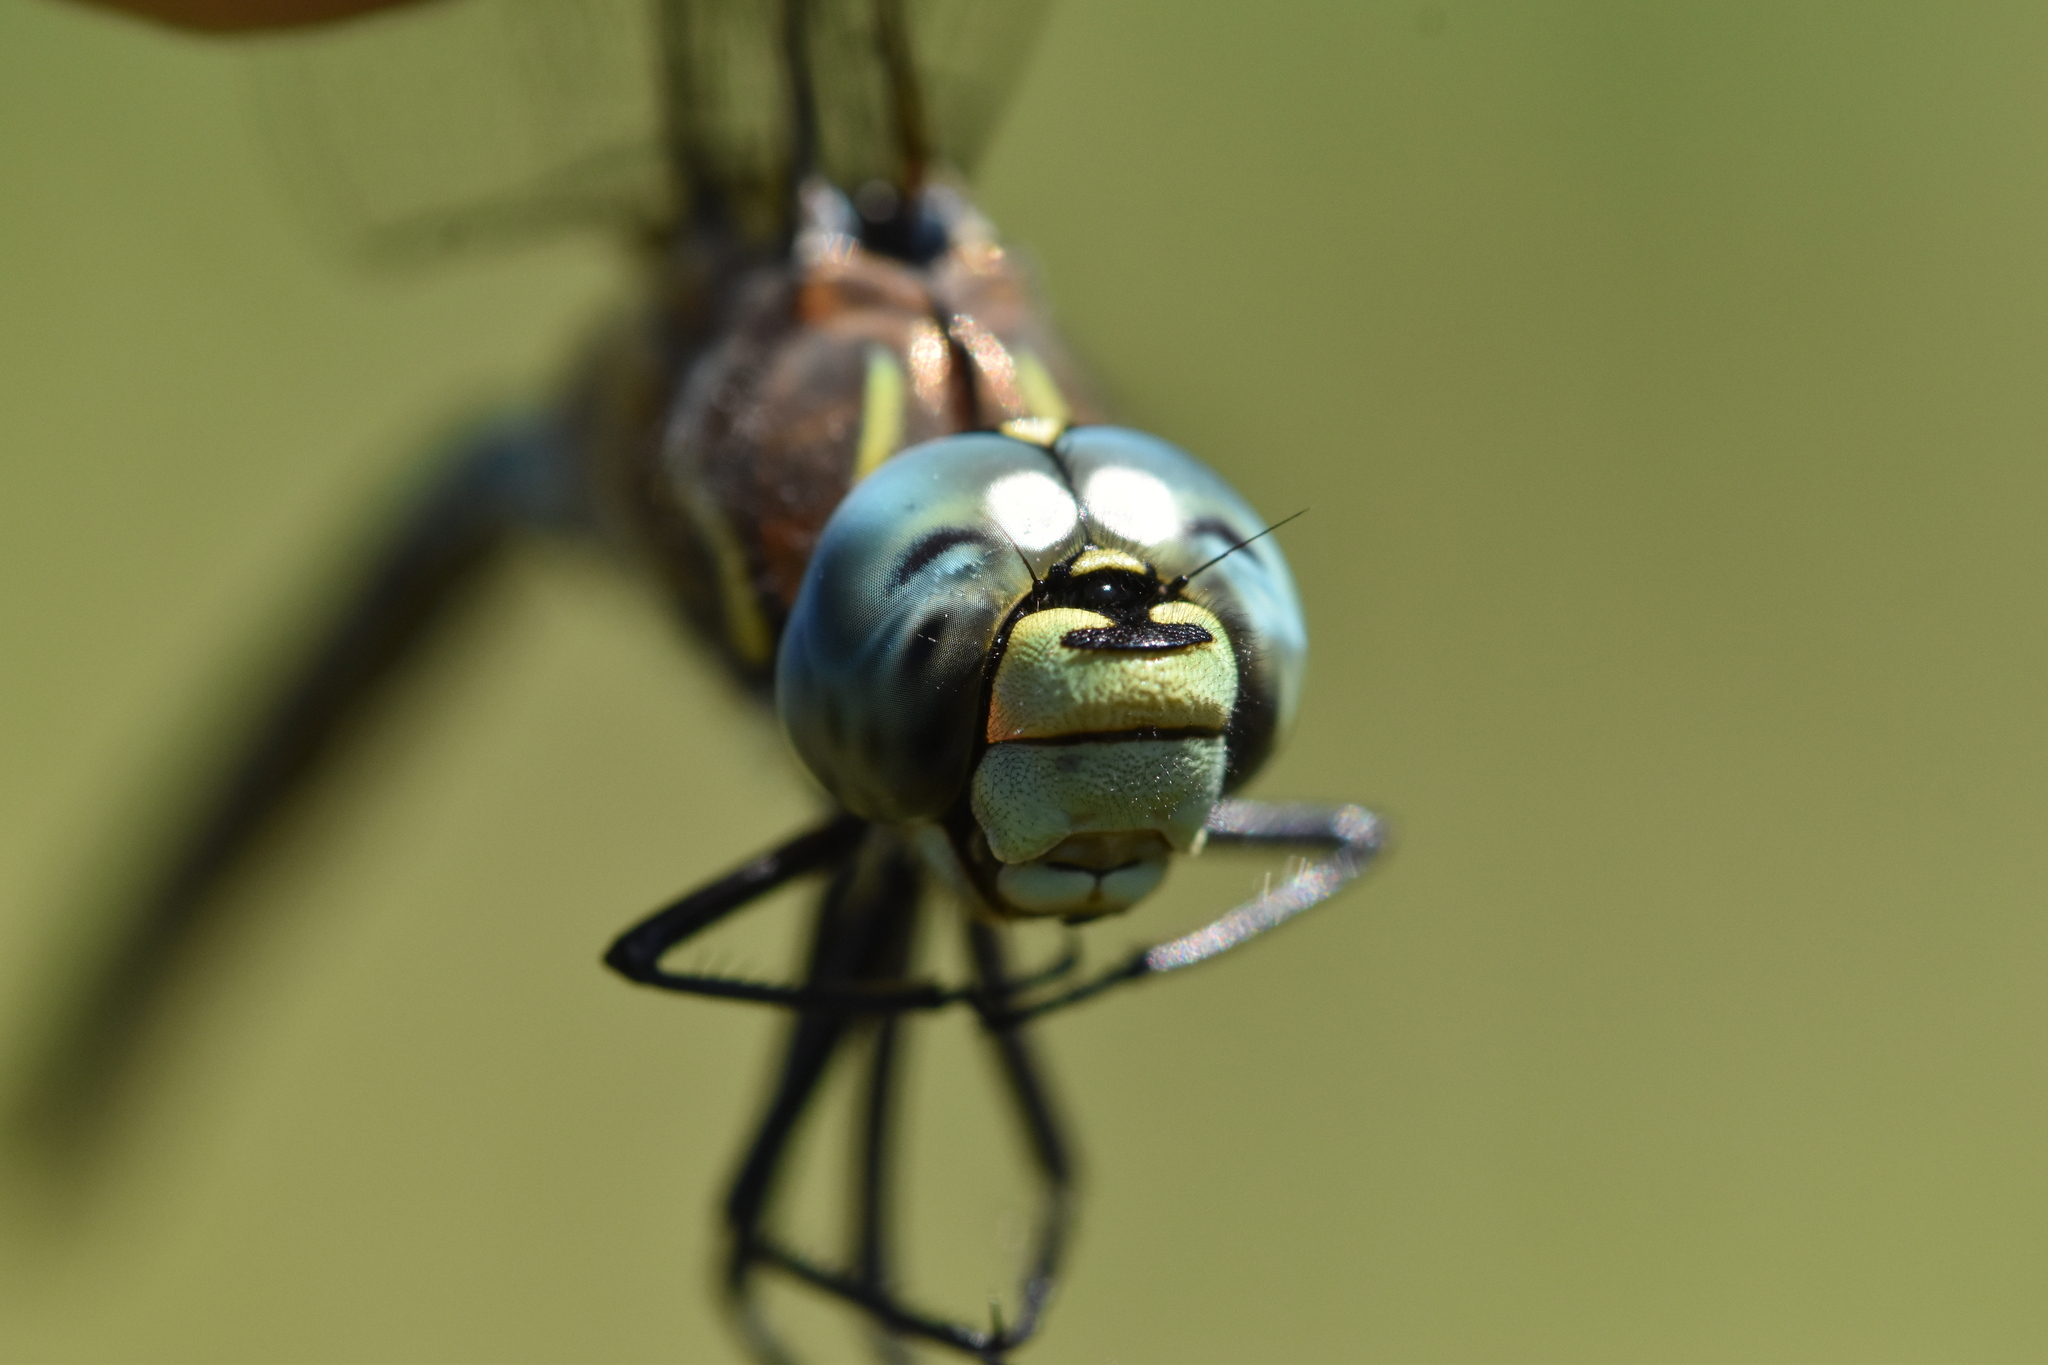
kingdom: Animalia
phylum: Arthropoda
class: Insecta
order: Odonata
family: Aeshnidae
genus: Aeshna
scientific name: Aeshna interrupta
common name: Variable darner
